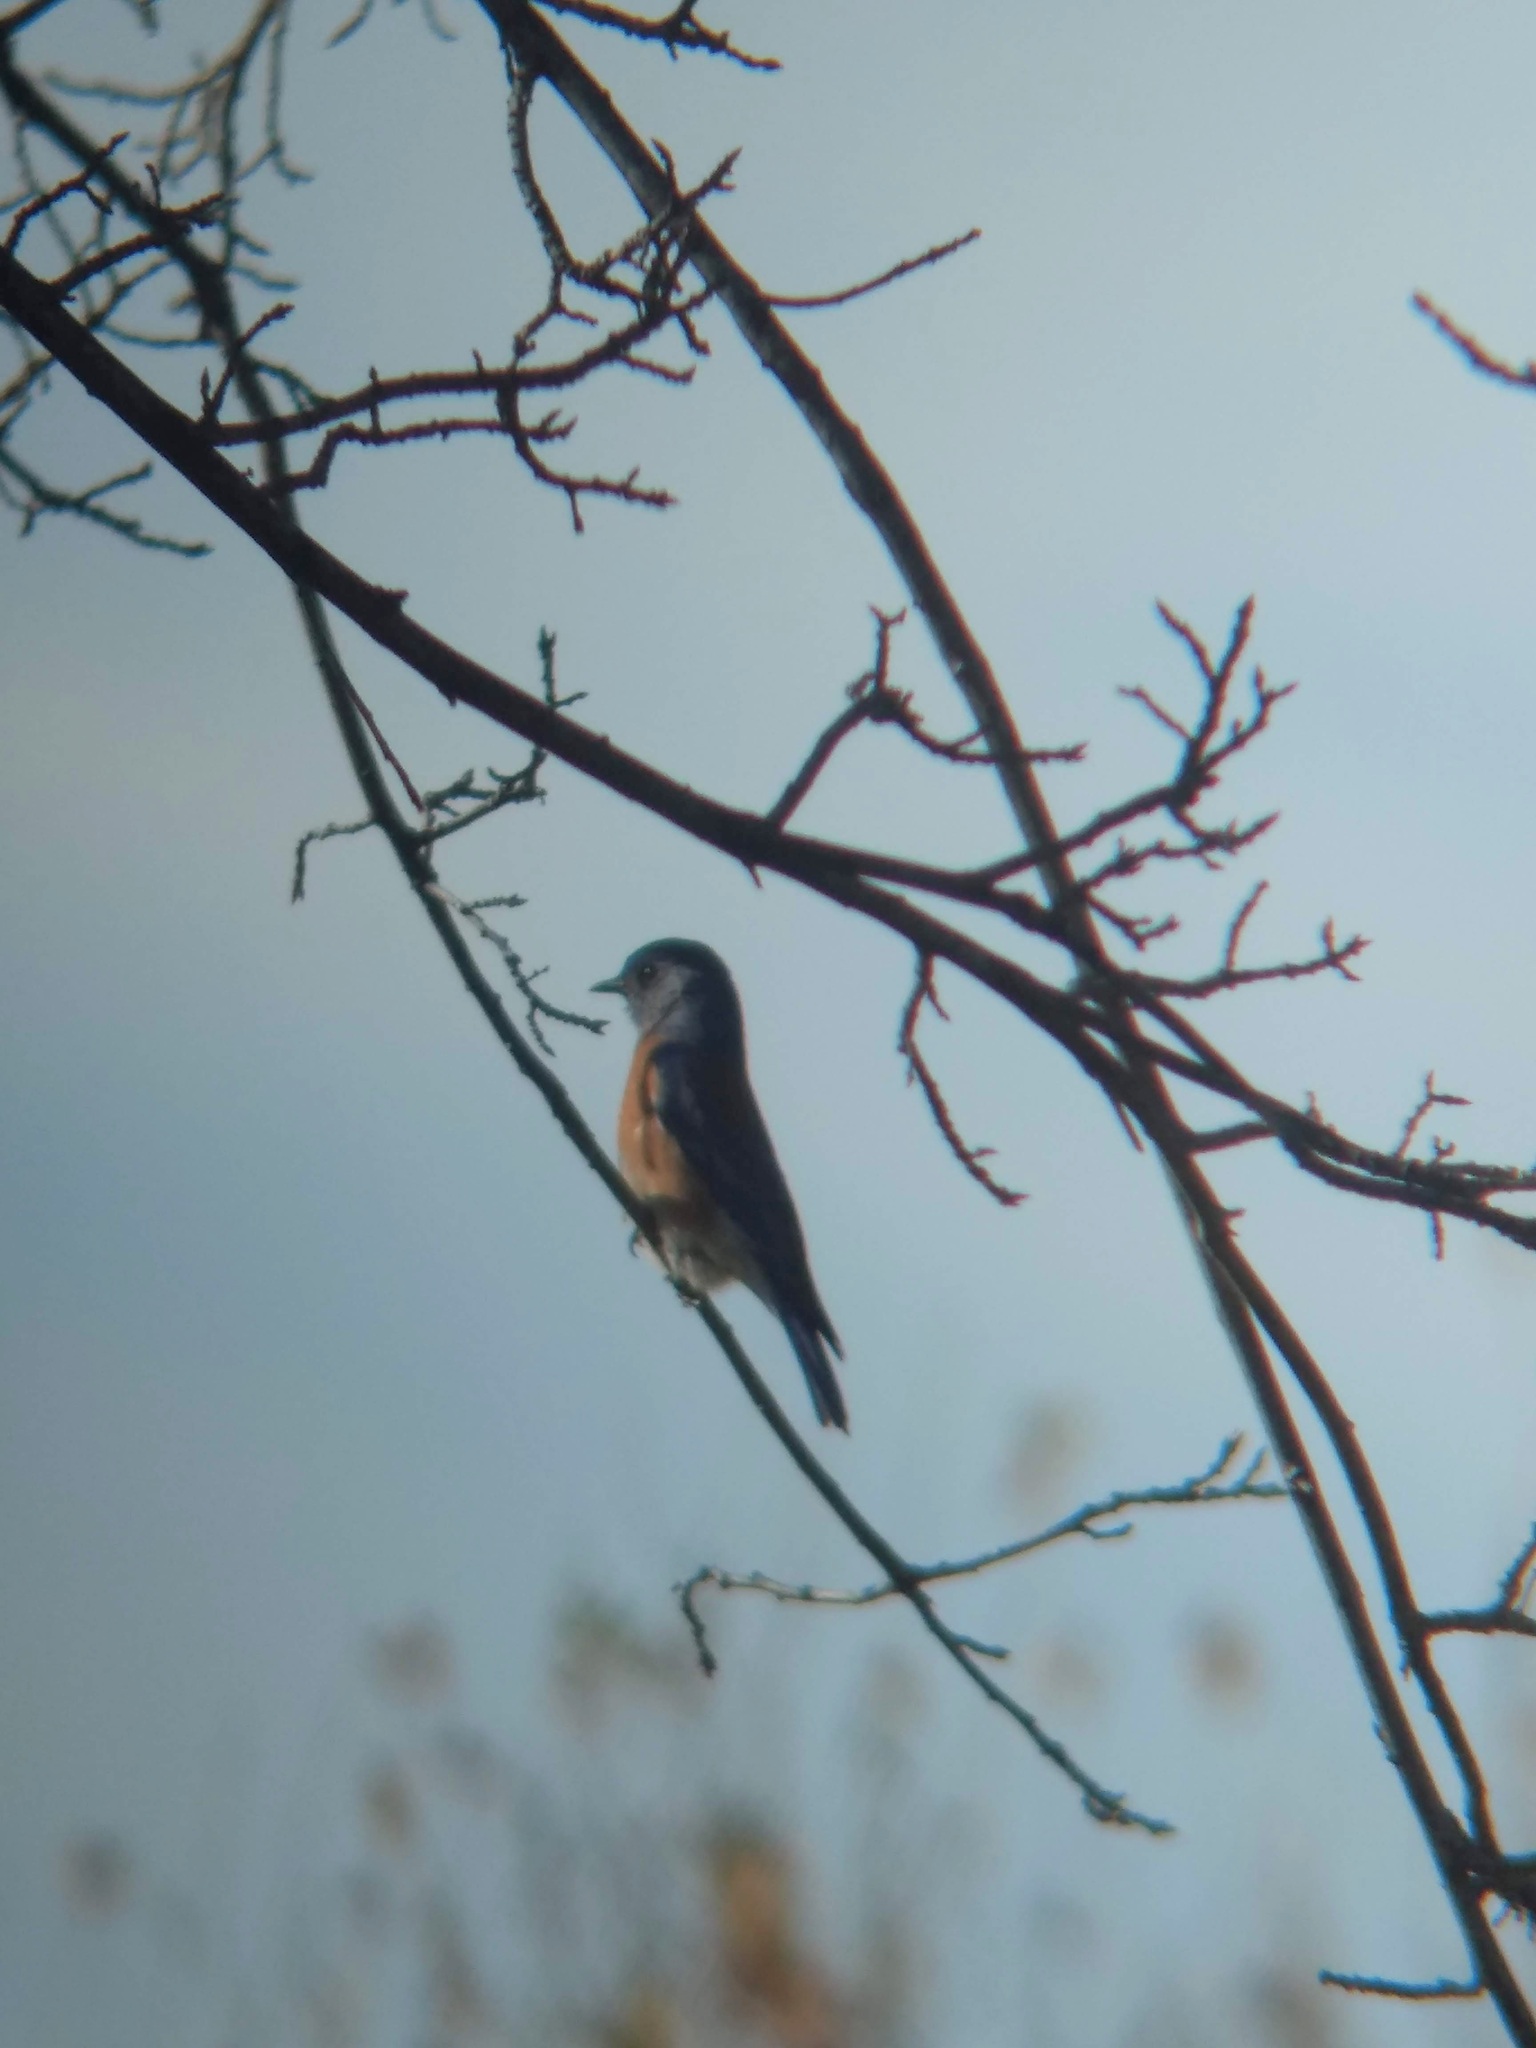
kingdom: Animalia
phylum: Chordata
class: Aves
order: Passeriformes
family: Turdidae
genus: Sialia
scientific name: Sialia mexicana
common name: Western bluebird
